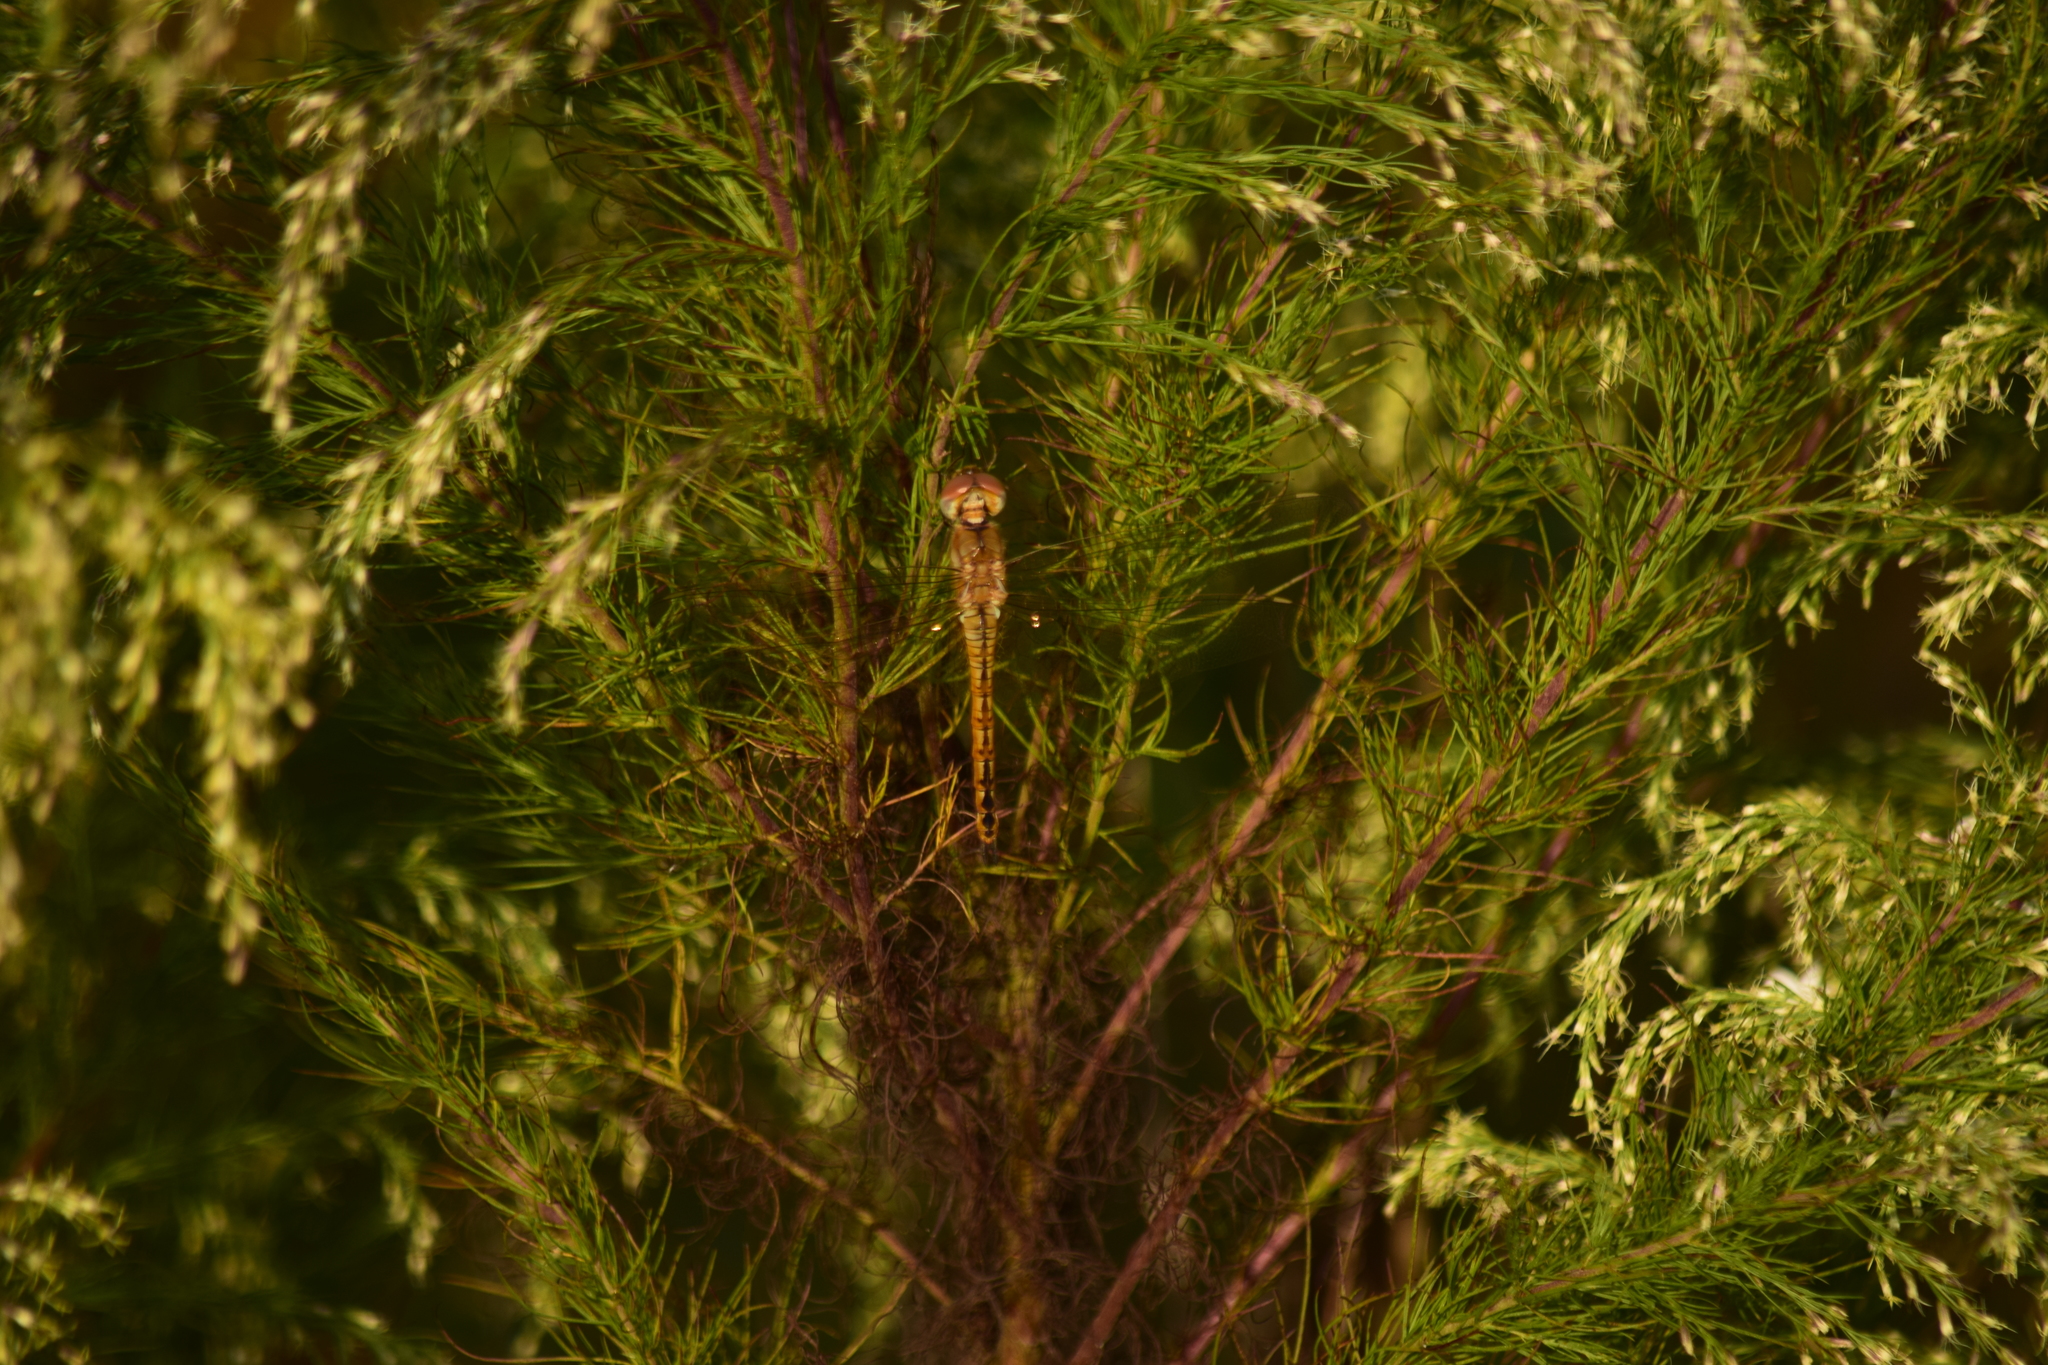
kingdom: Animalia
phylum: Arthropoda
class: Insecta
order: Odonata
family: Libellulidae
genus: Pantala
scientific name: Pantala flavescens
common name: Wandering glider
